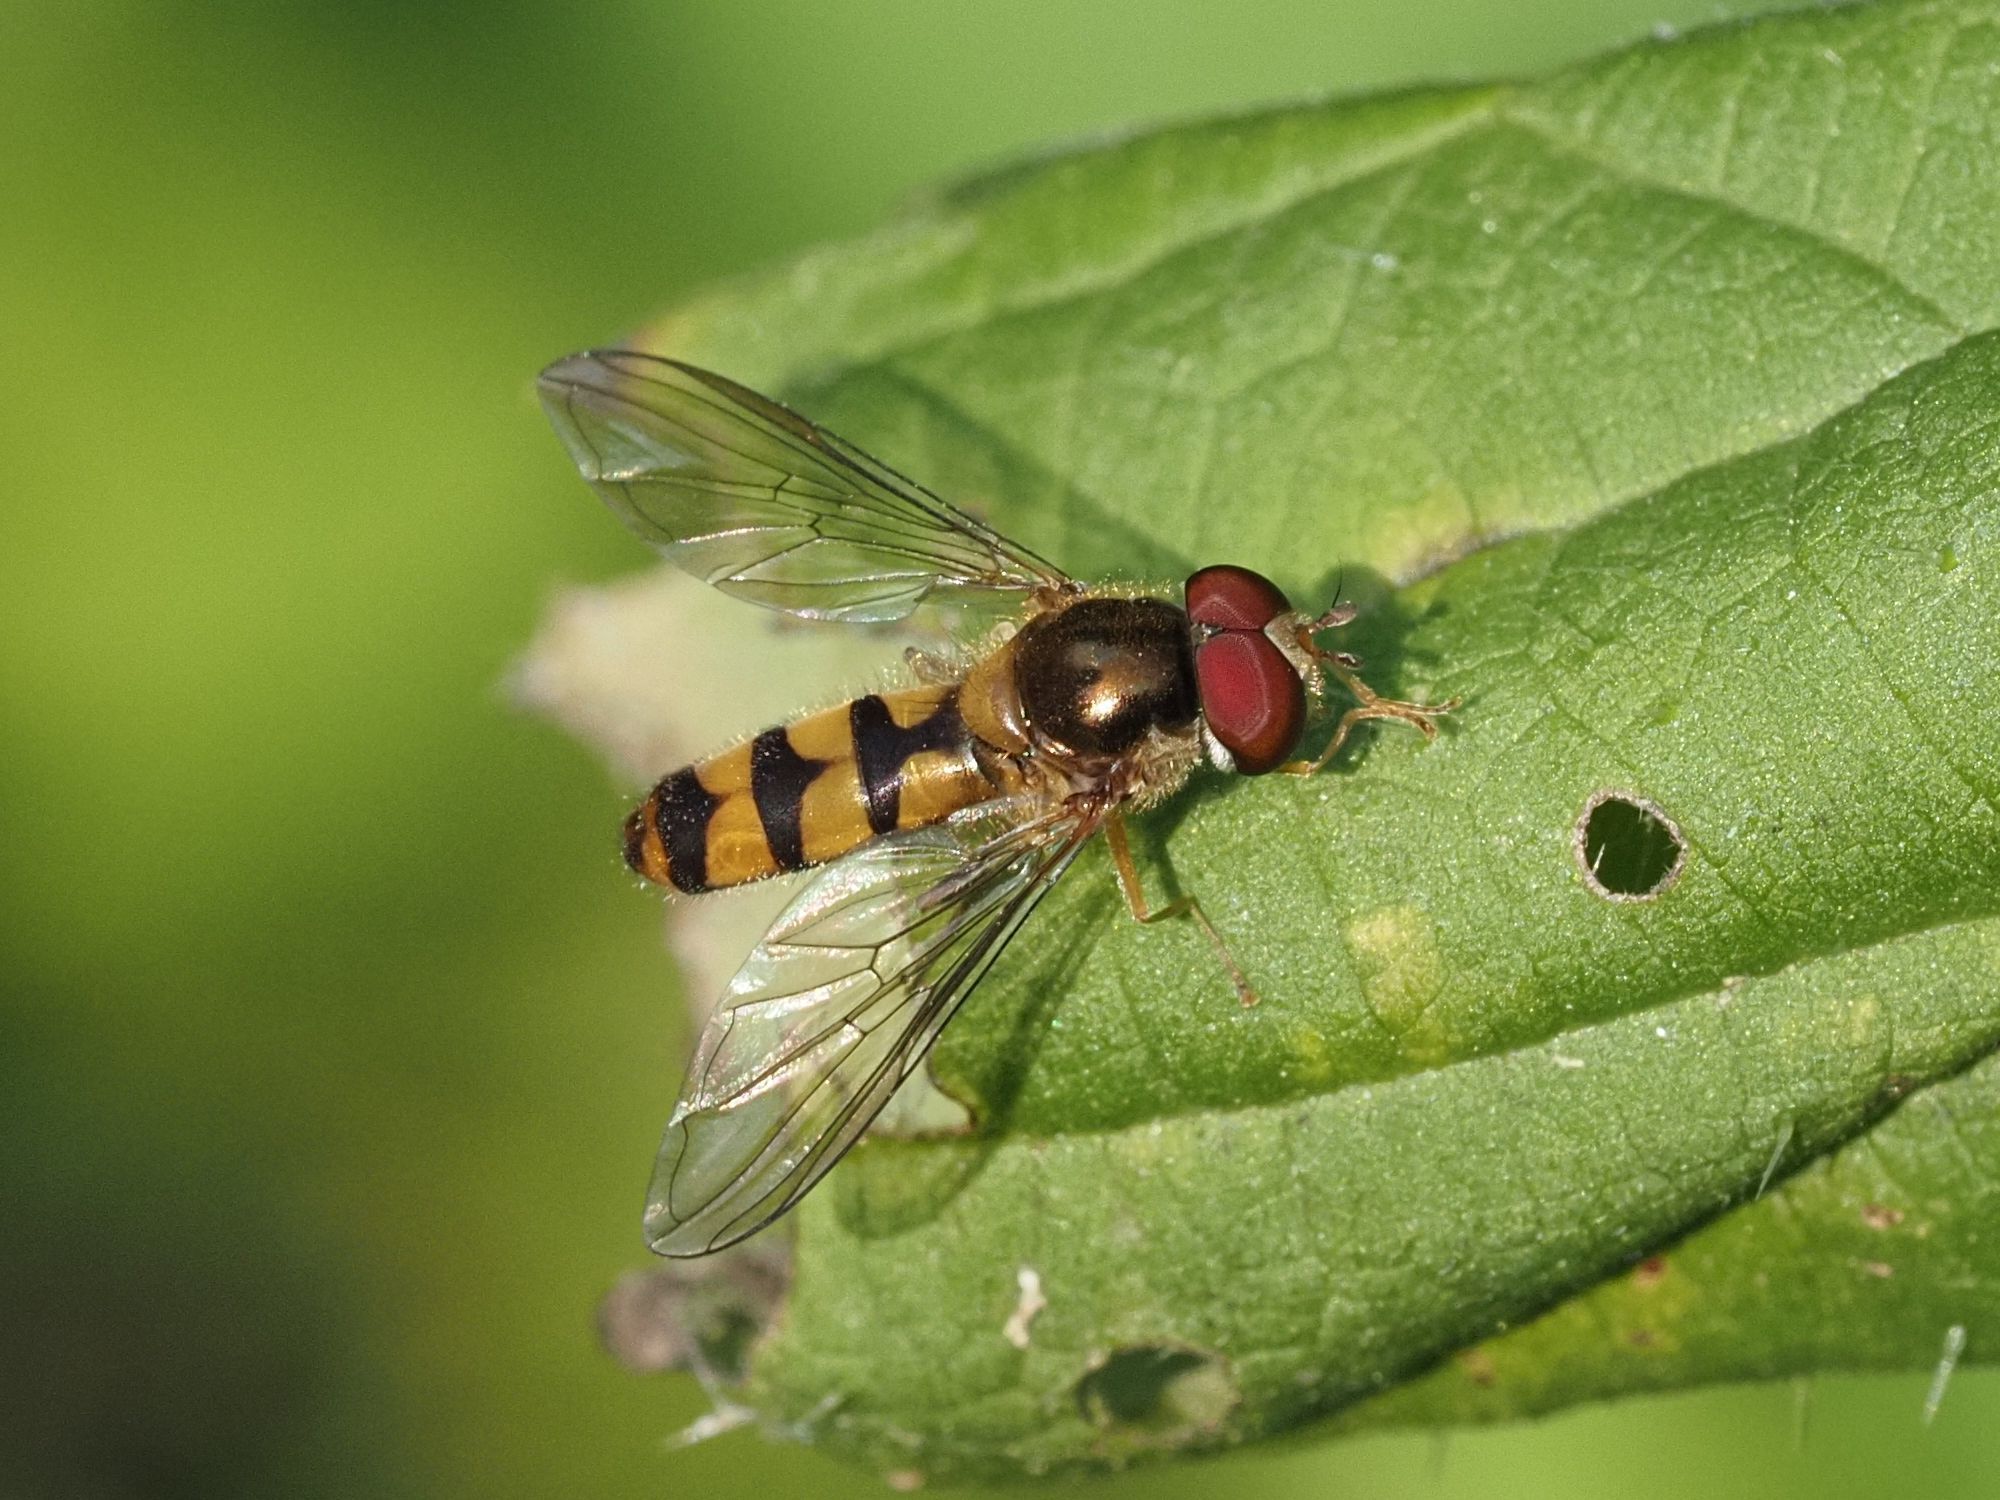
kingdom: Animalia
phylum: Arthropoda
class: Insecta
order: Diptera
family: Syrphidae
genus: Meliscaeva
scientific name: Meliscaeva auricollis
